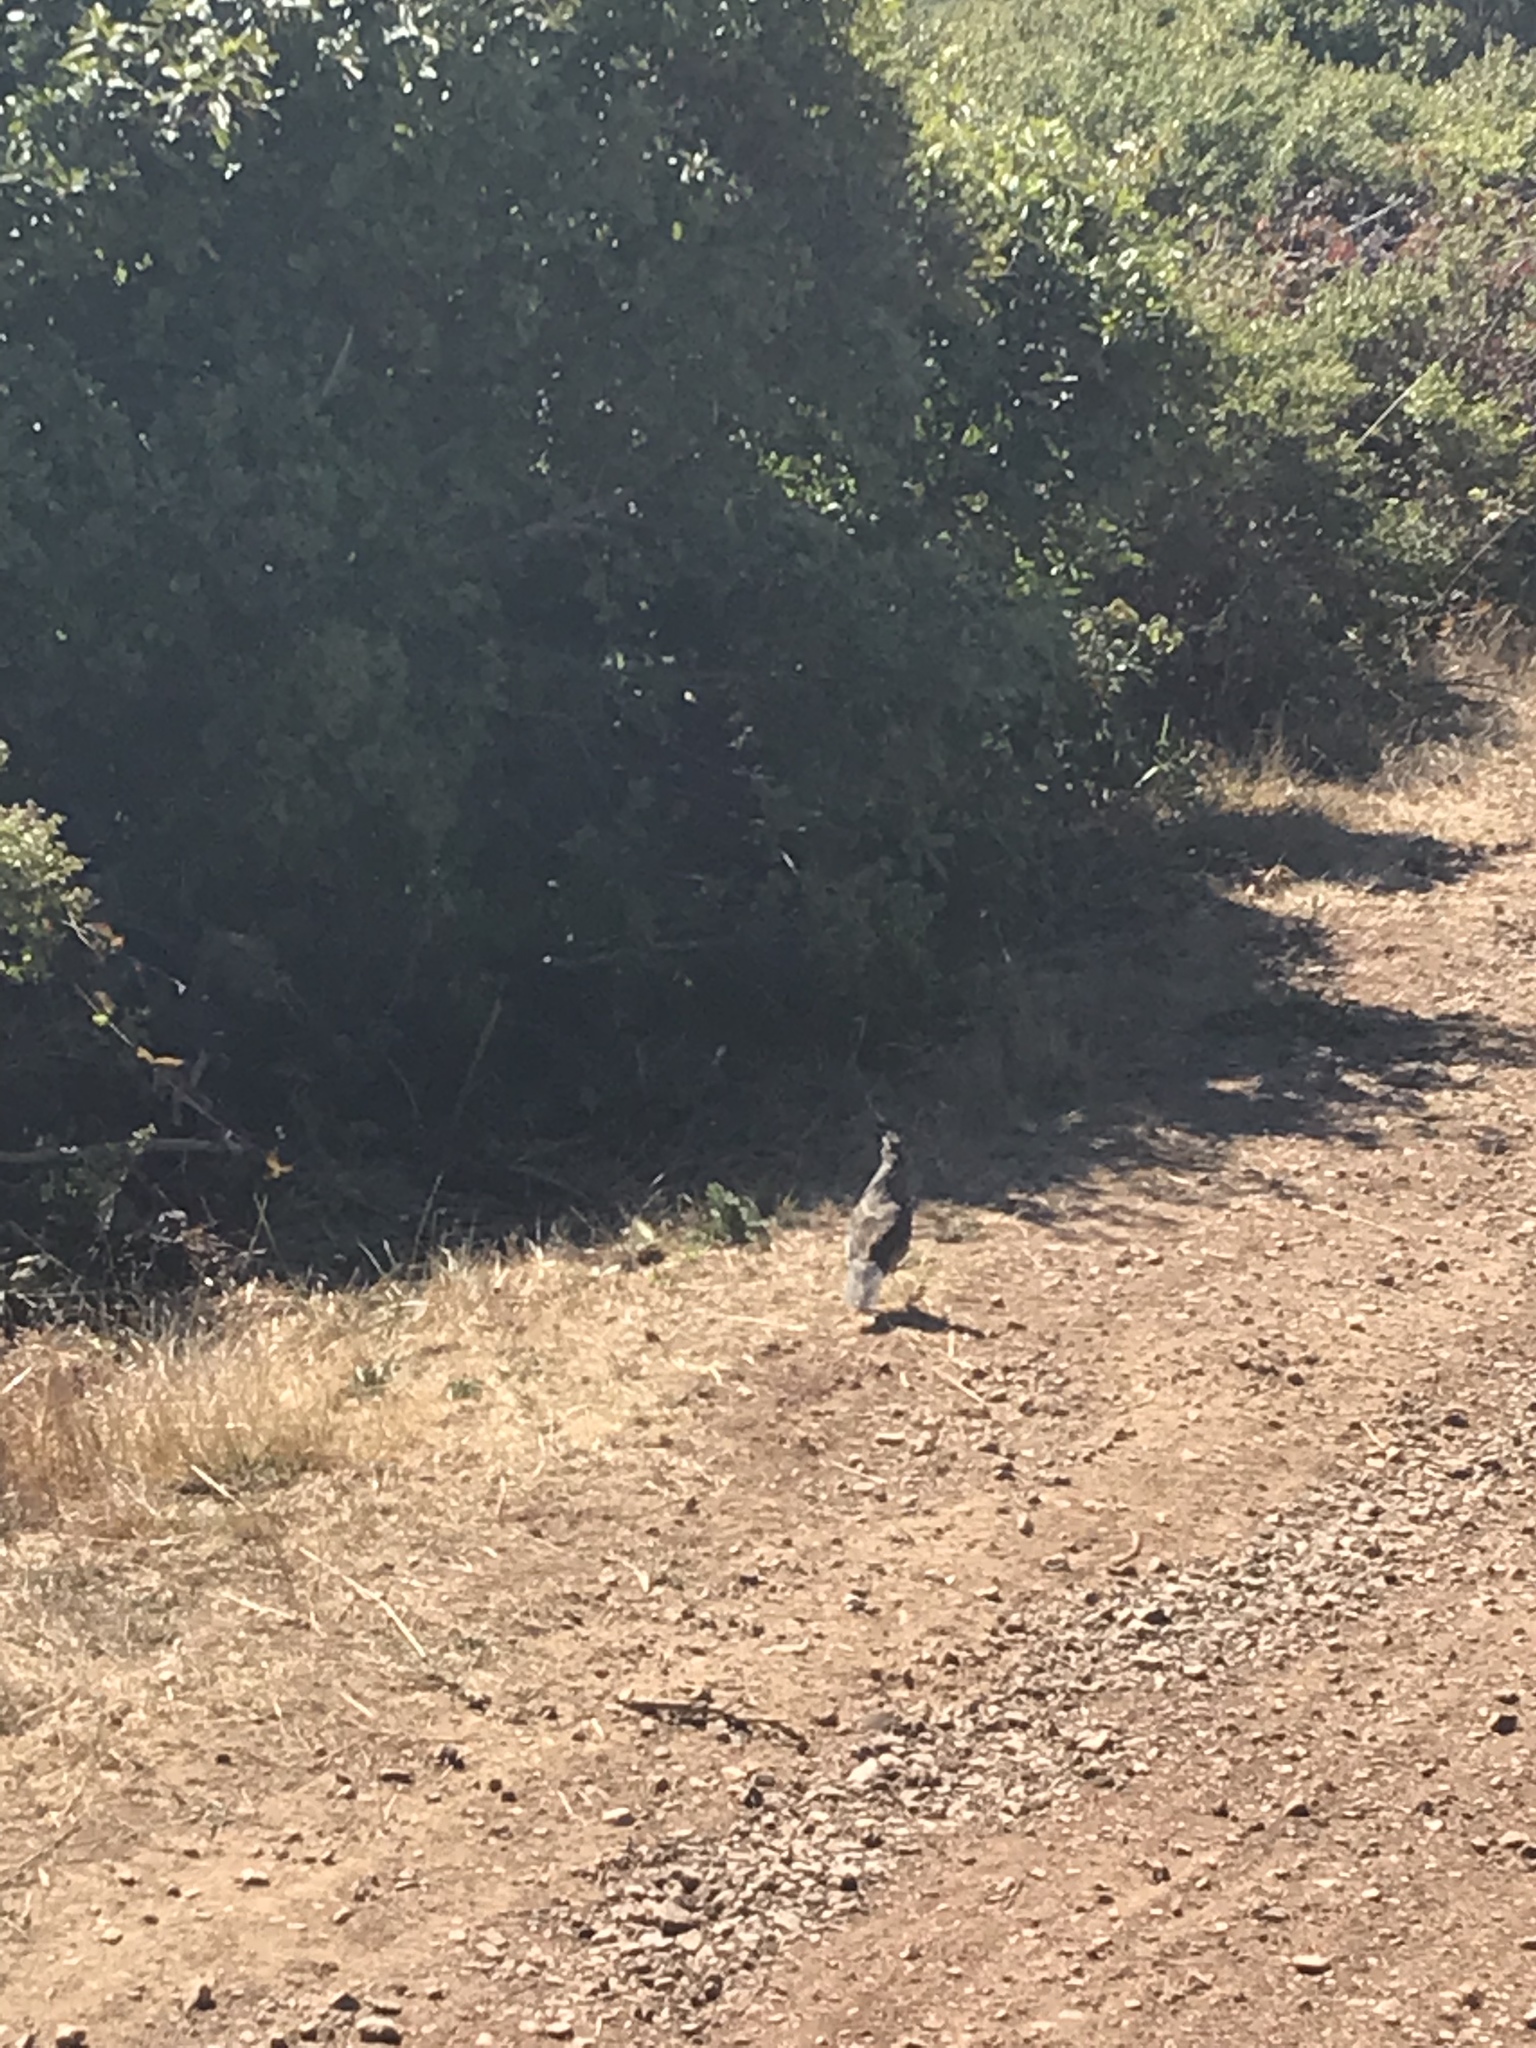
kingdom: Animalia
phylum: Chordata
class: Aves
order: Galliformes
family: Odontophoridae
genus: Callipepla
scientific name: Callipepla californica
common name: California quail
